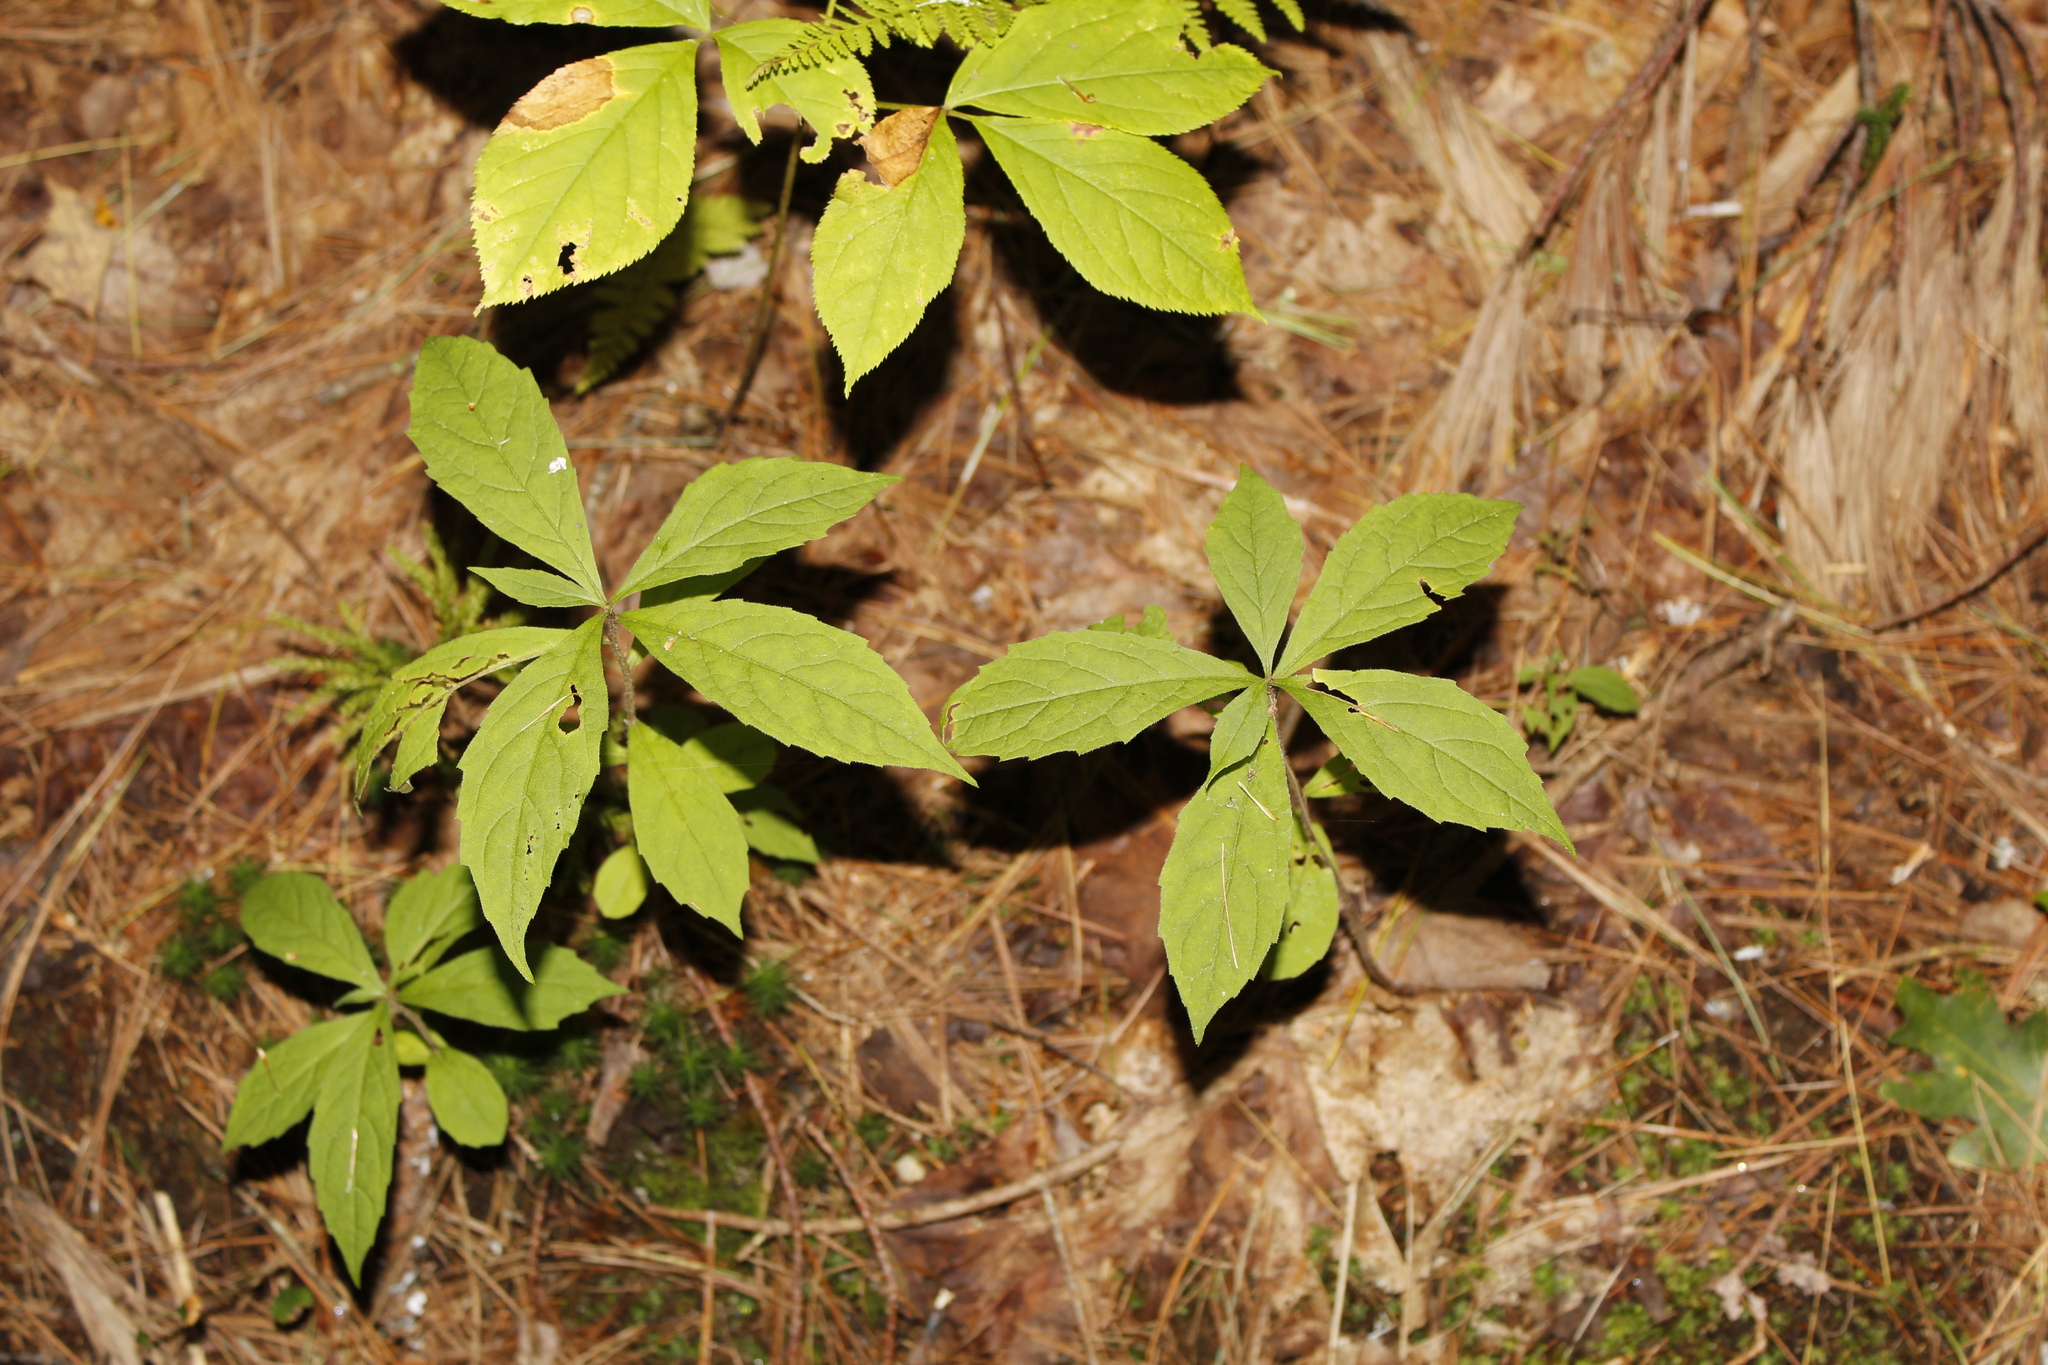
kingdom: Plantae
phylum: Tracheophyta
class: Magnoliopsida
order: Asterales
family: Asteraceae
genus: Oclemena
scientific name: Oclemena acuminata
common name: Mountain aster
